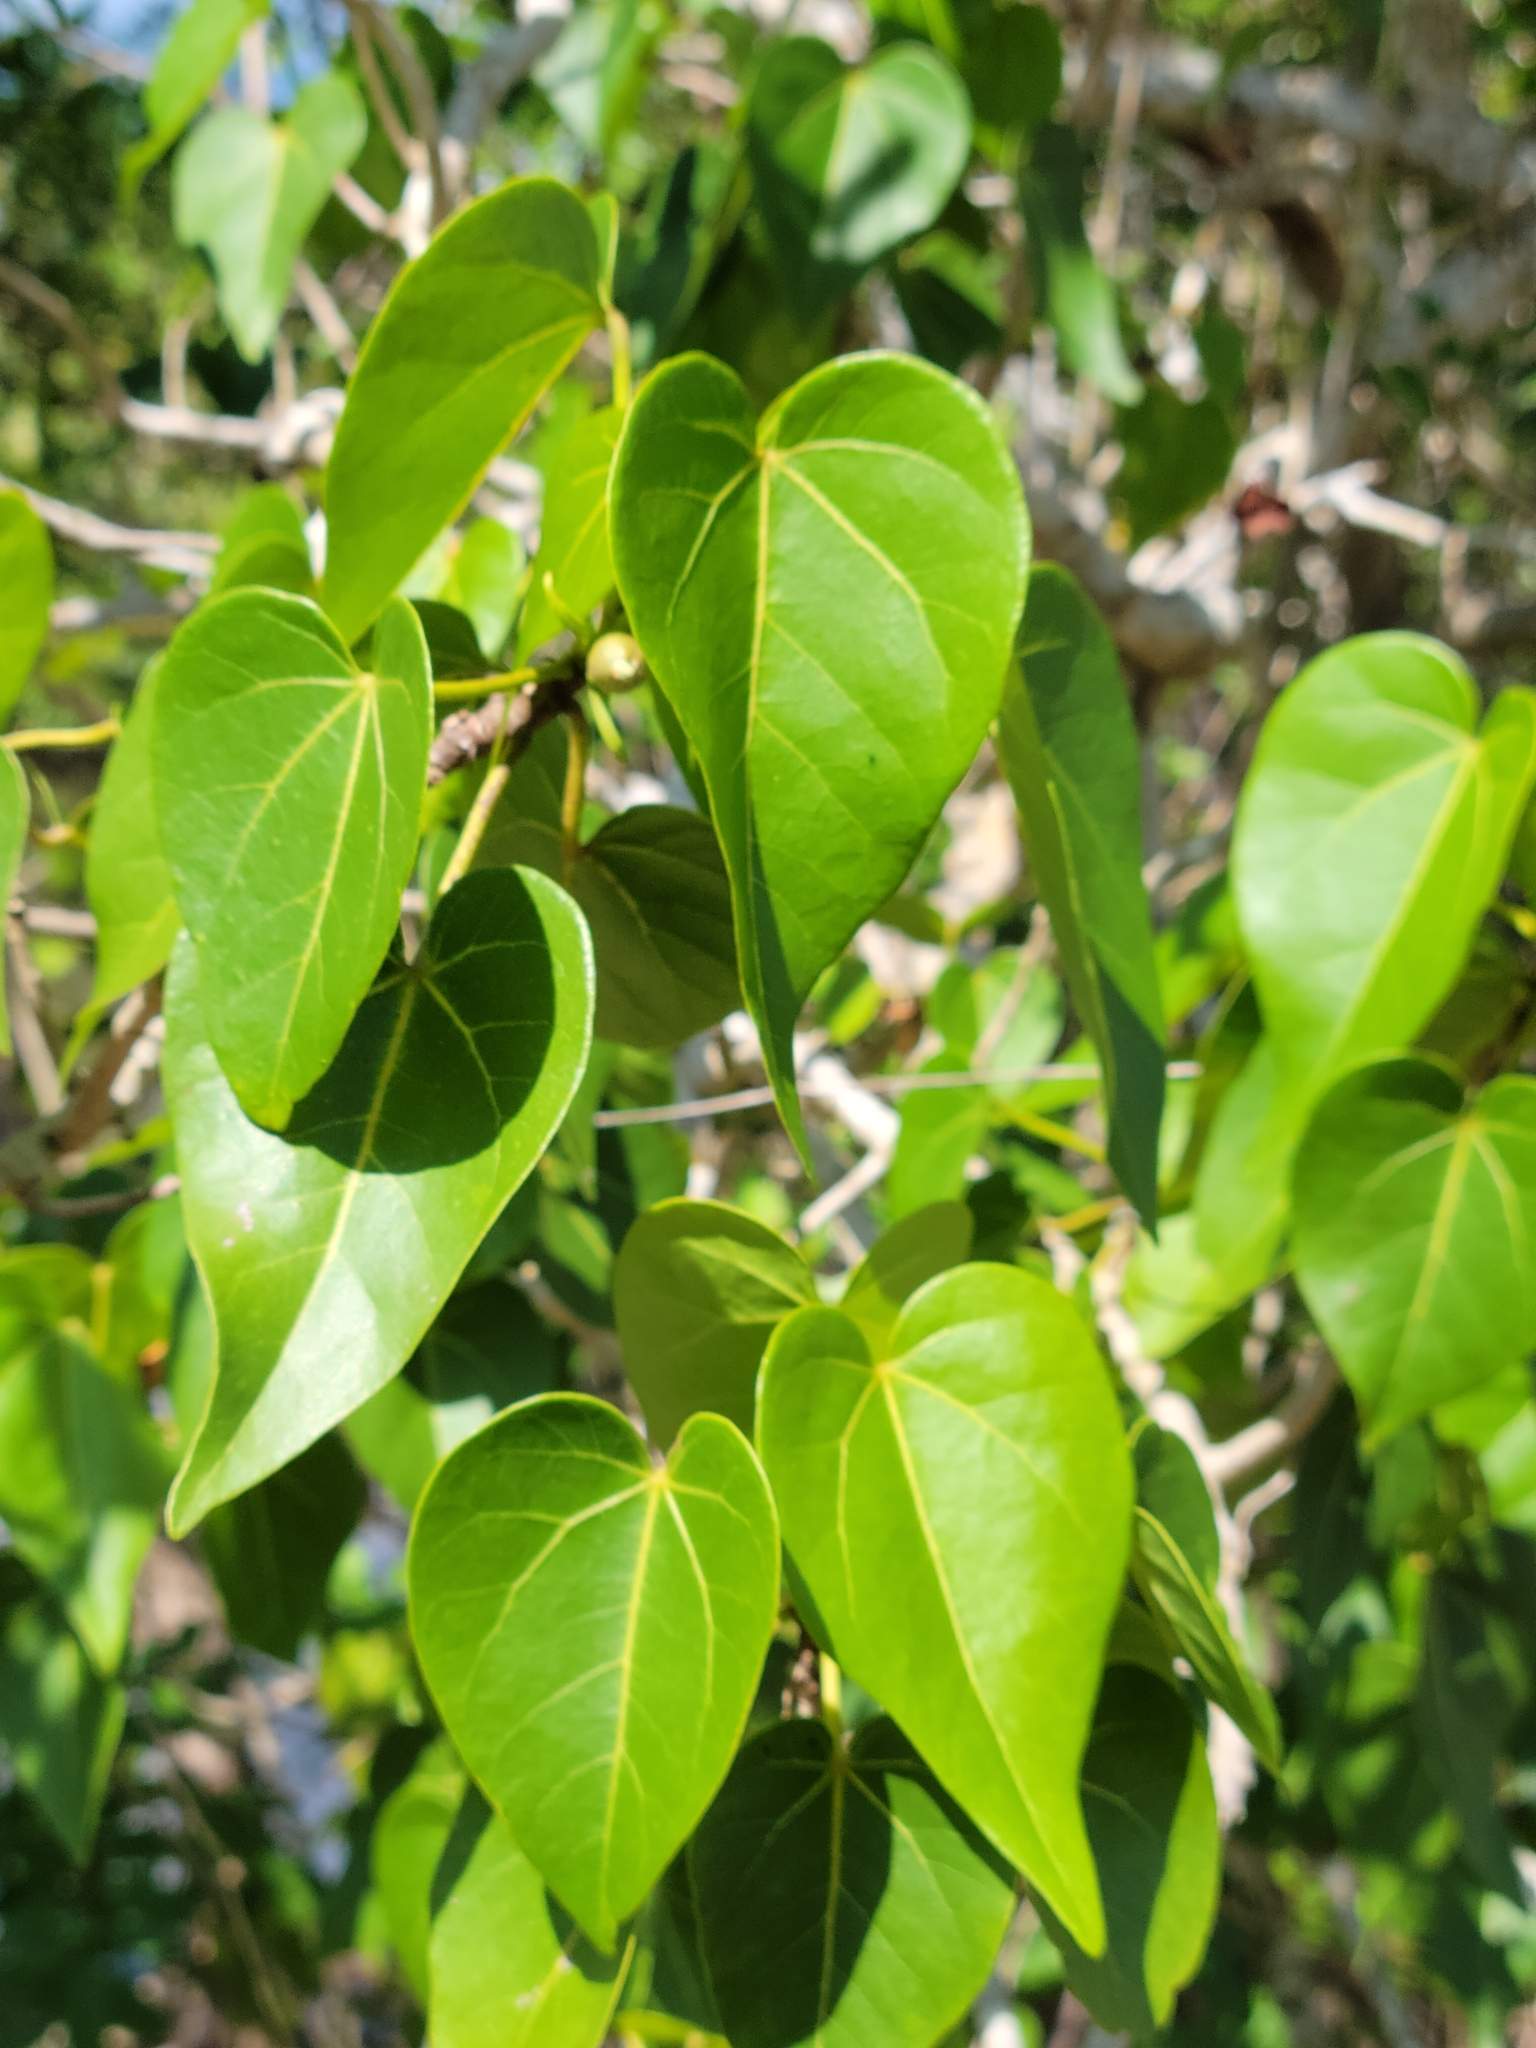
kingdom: Plantae
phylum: Tracheophyta
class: Magnoliopsida
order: Malvales
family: Malvaceae
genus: Thespesia
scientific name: Thespesia populnea
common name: Seaside mahoe
